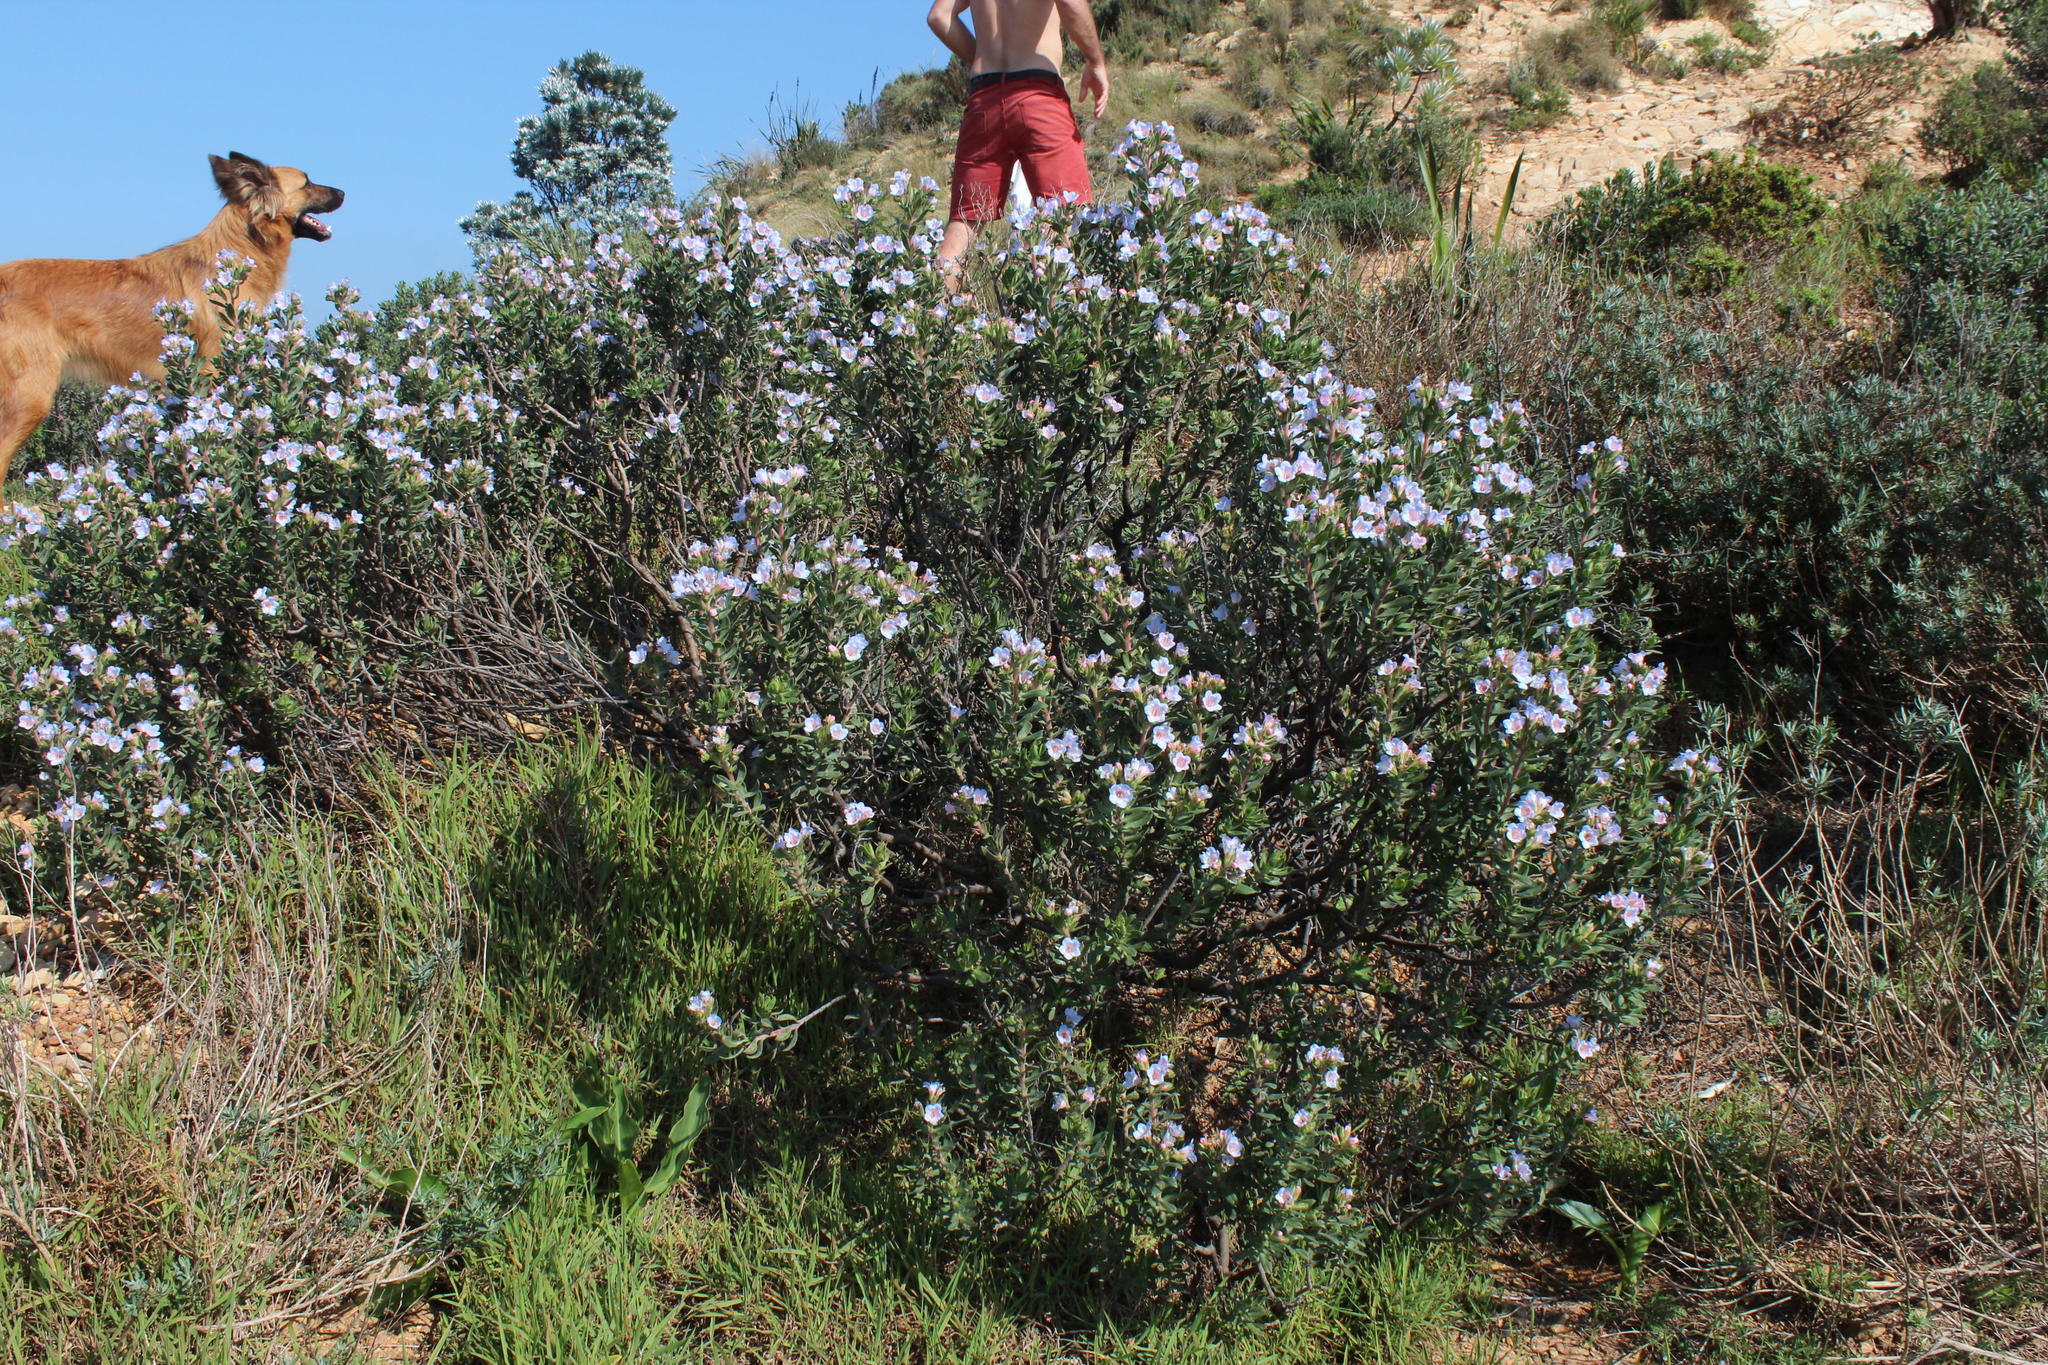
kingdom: Plantae
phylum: Tracheophyta
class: Magnoliopsida
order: Boraginales
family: Boraginaceae
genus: Lobostemon
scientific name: Lobostemon fruticosus
